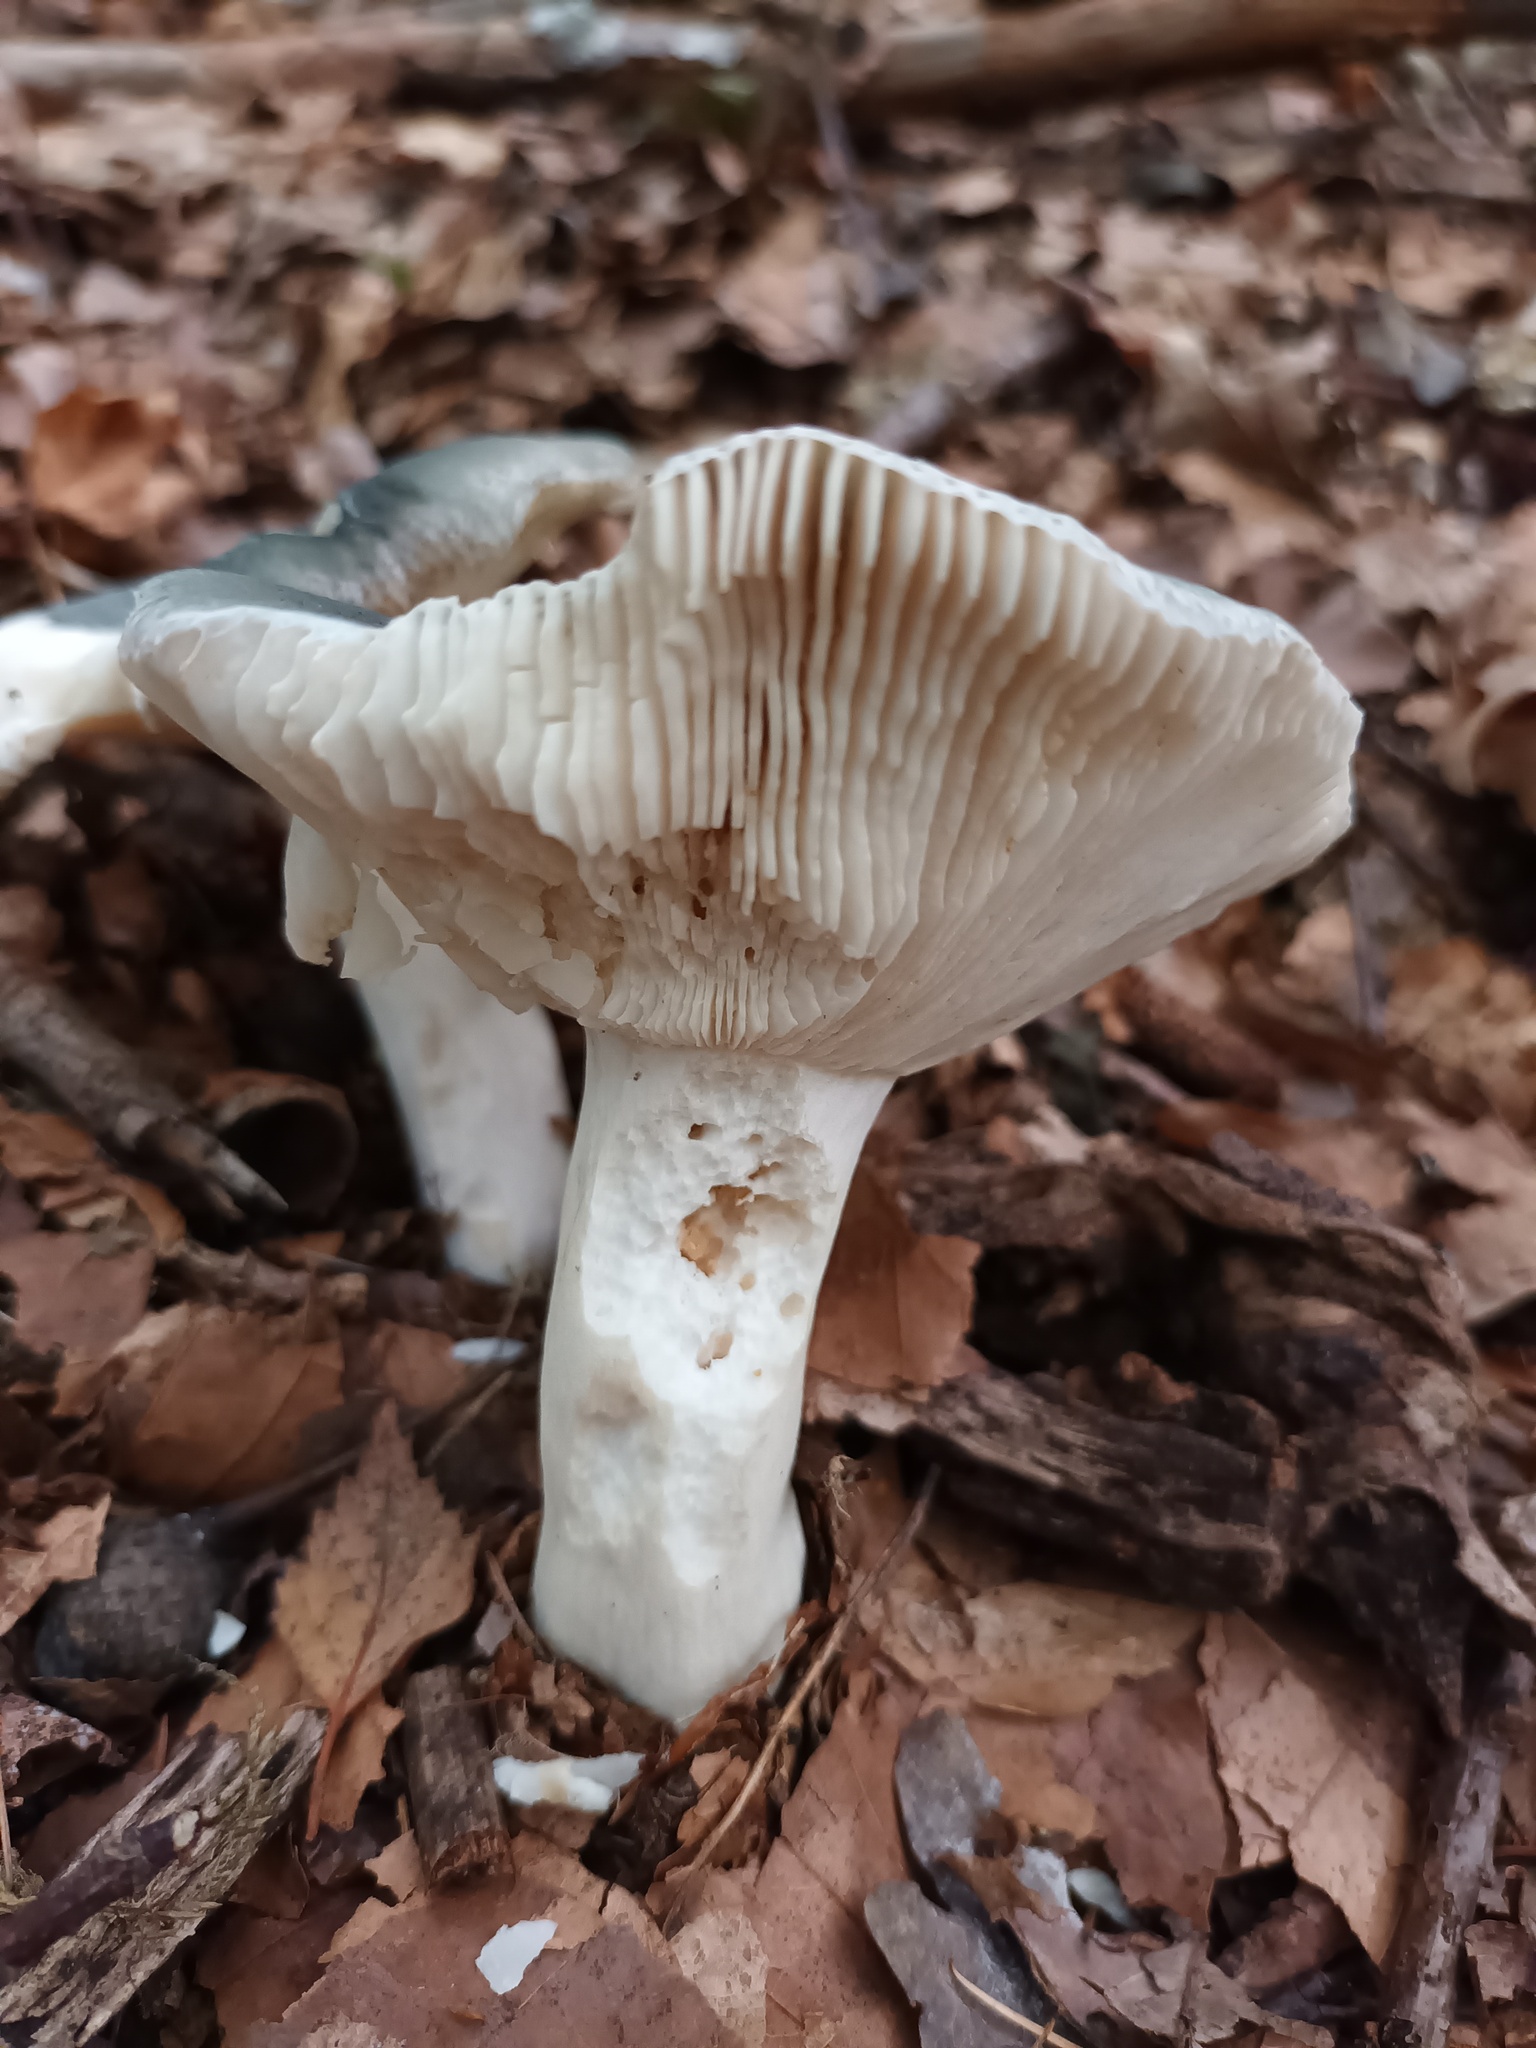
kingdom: Fungi
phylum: Basidiomycota
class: Agaricomycetes
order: Russulales
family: Russulaceae
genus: Russula
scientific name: Russula cyanoxantha
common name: Charcoal burner
